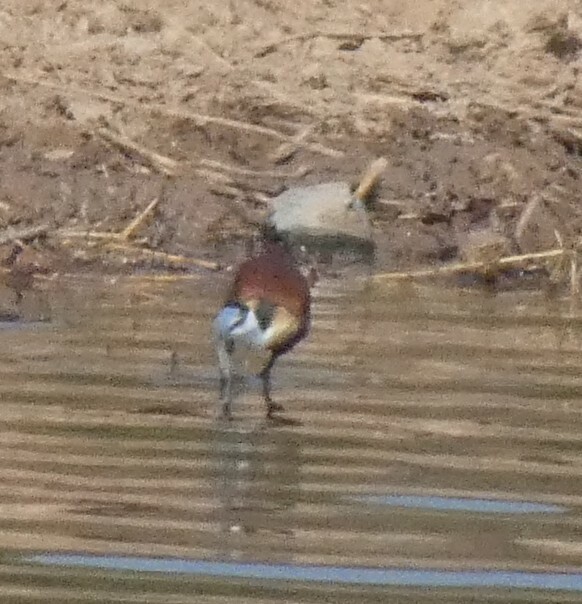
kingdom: Animalia
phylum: Chordata
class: Aves
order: Charadriiformes
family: Jacanidae
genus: Actophilornis
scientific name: Actophilornis africanus
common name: African jacana
